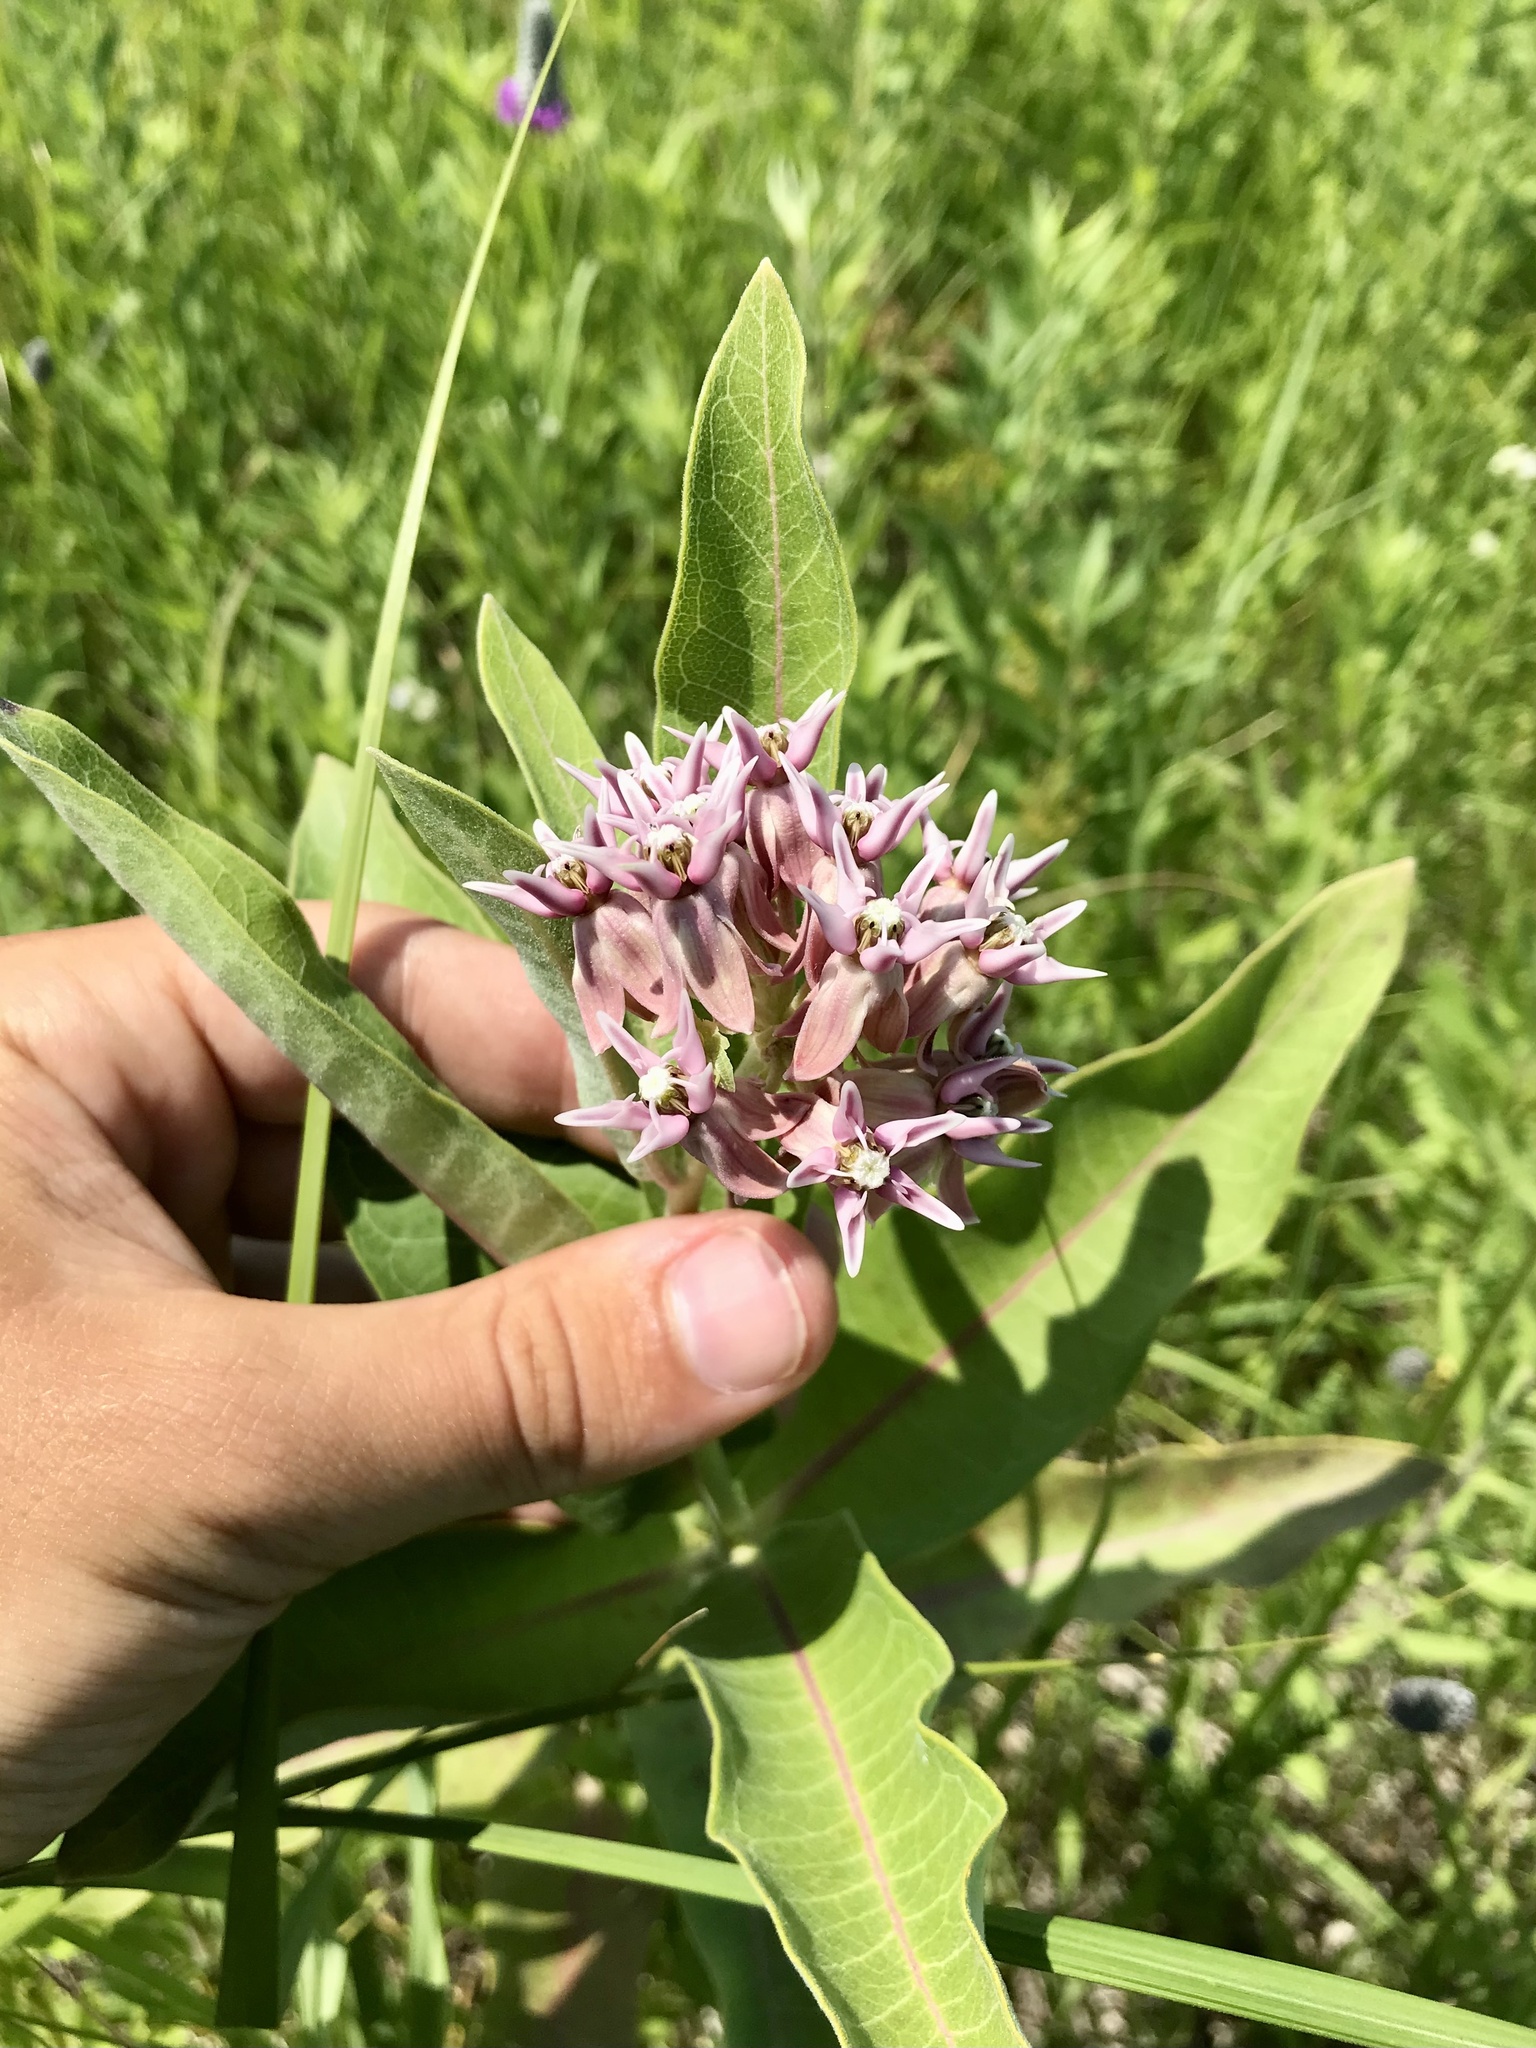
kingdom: Plantae
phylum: Tracheophyta
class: Magnoliopsida
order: Gentianales
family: Apocynaceae
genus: Asclepias
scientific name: Asclepias speciosa
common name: Showy milkweed
